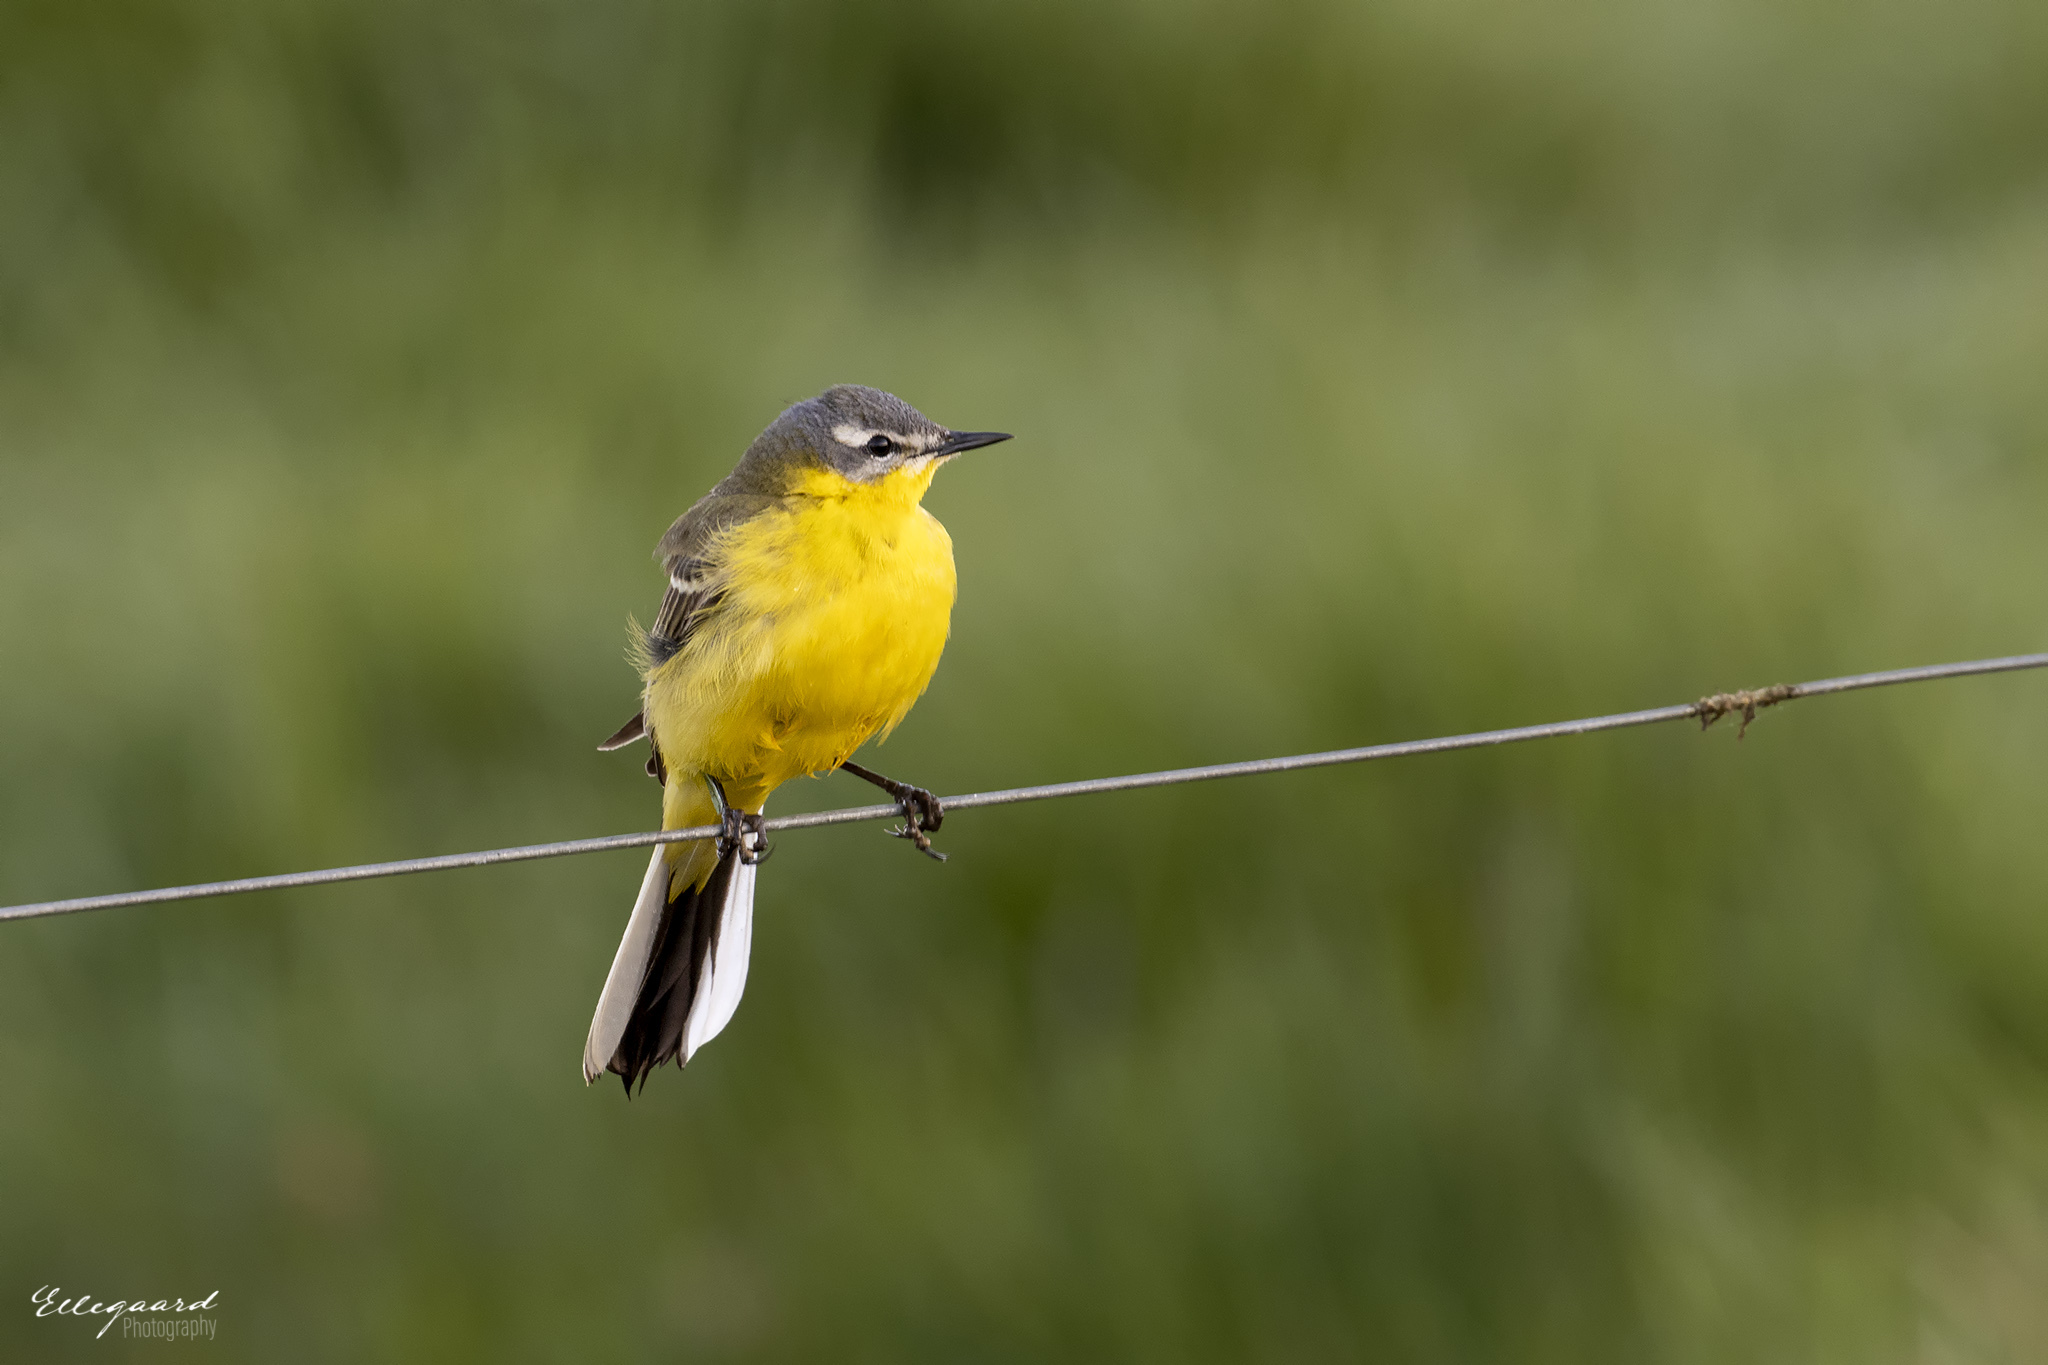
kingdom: Animalia
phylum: Chordata
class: Aves
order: Passeriformes
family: Motacillidae
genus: Motacilla
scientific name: Motacilla flava
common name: Western yellow wagtail
